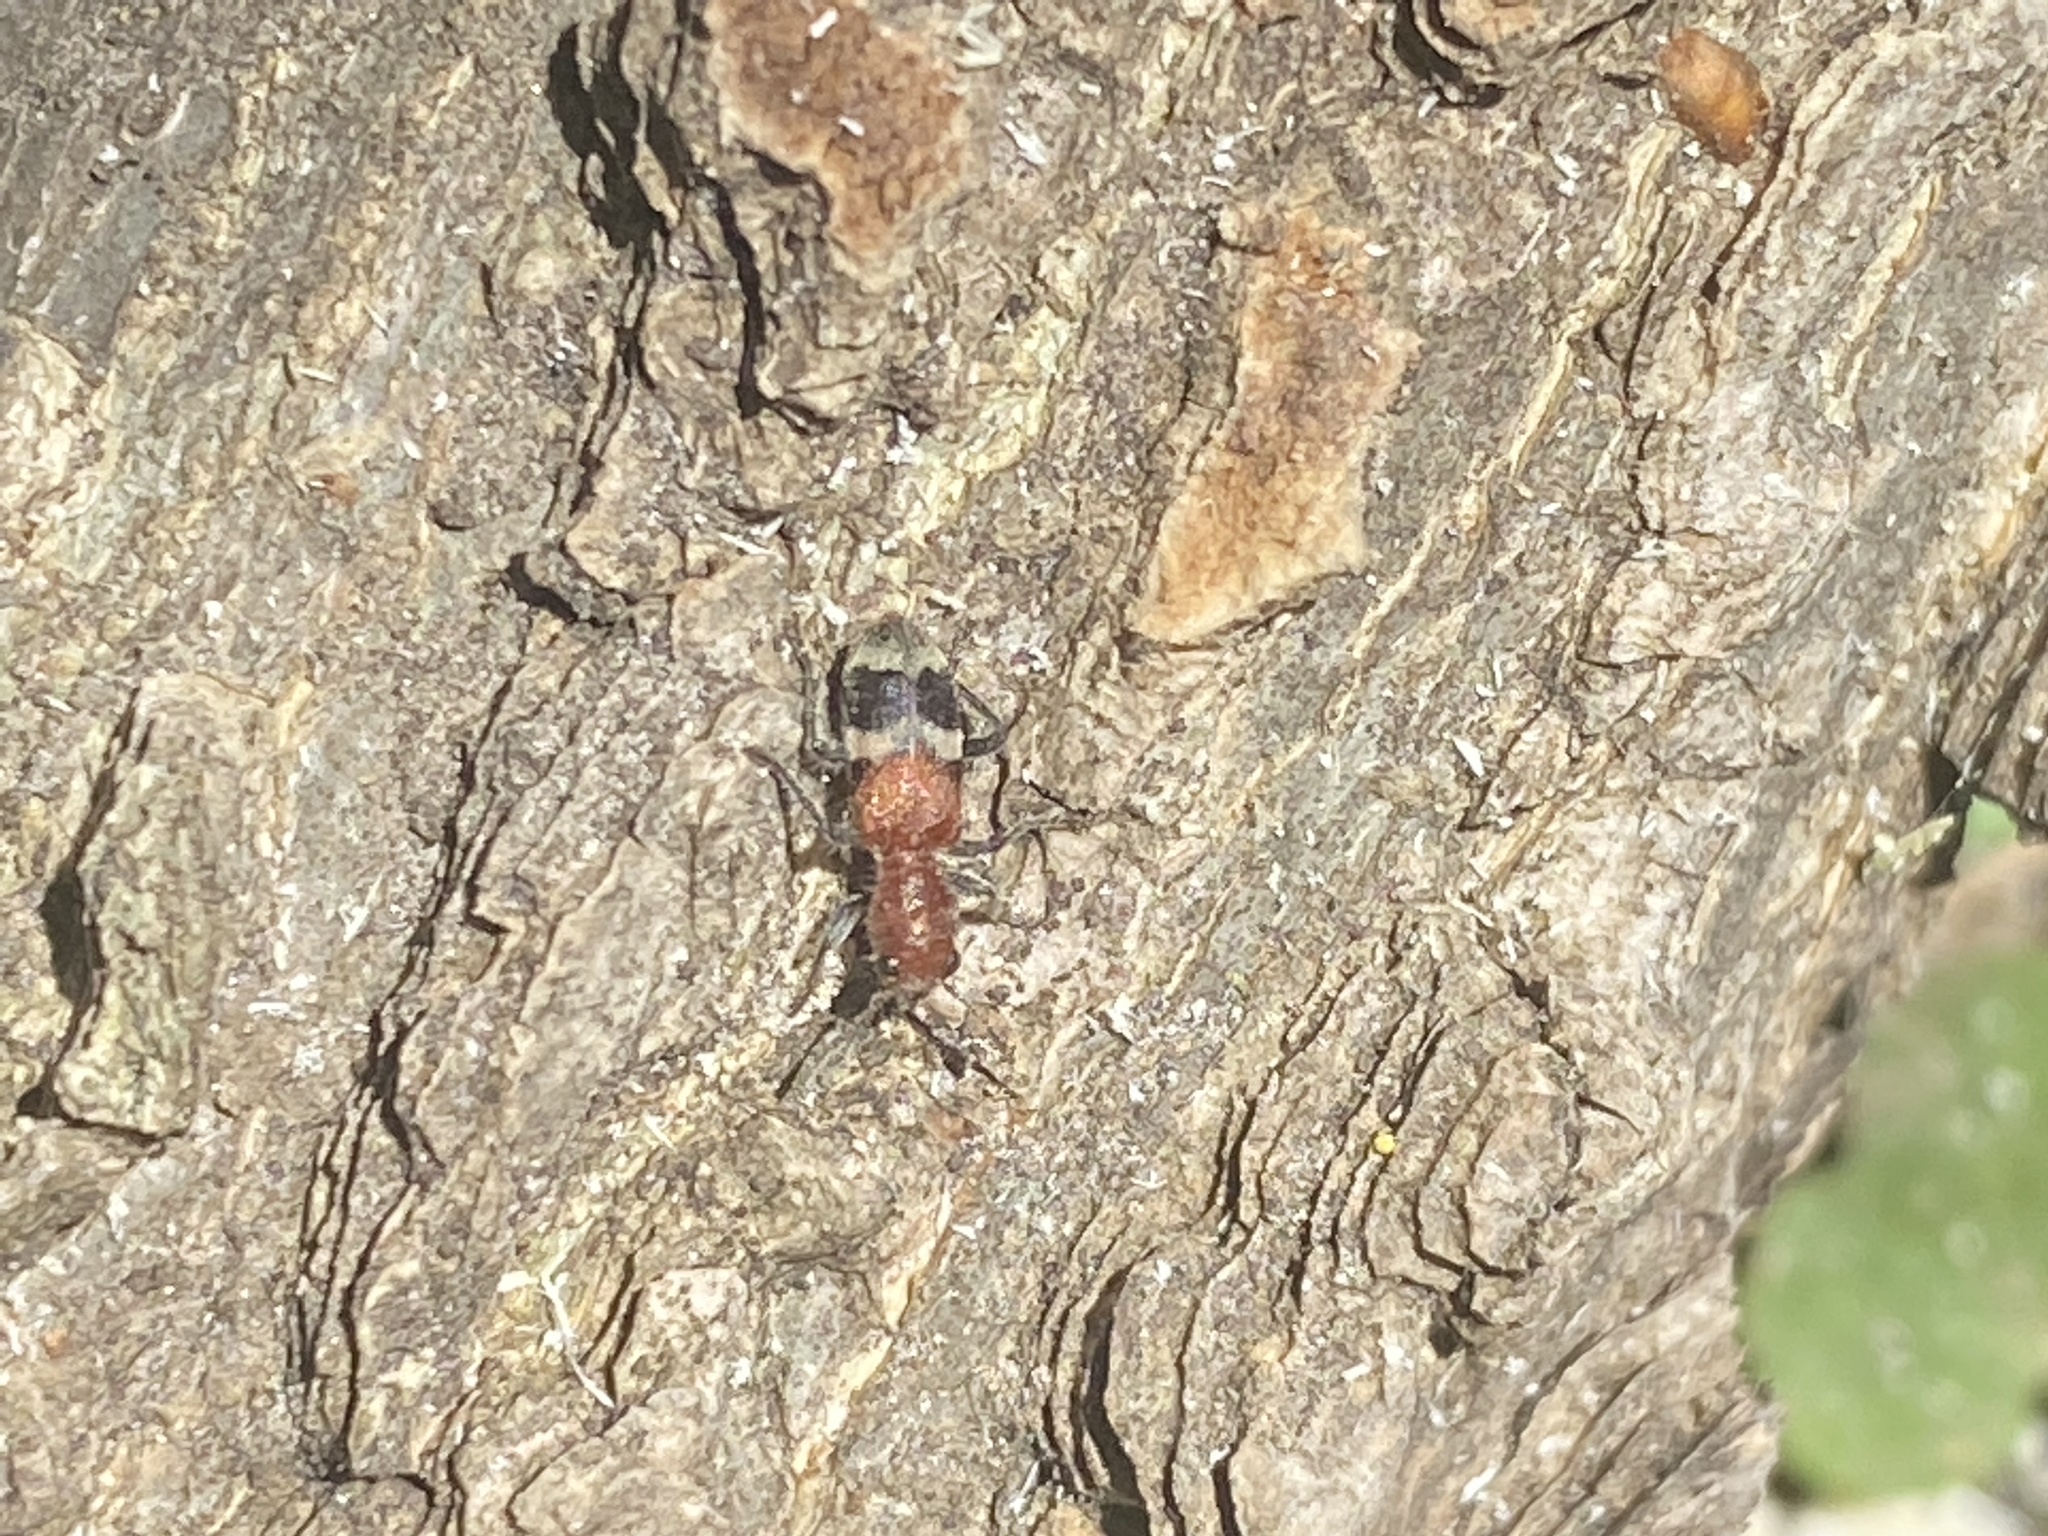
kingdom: Animalia
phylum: Arthropoda
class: Insecta
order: Coleoptera
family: Cleridae
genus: Enoclerus
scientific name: Enoclerus nigripes
